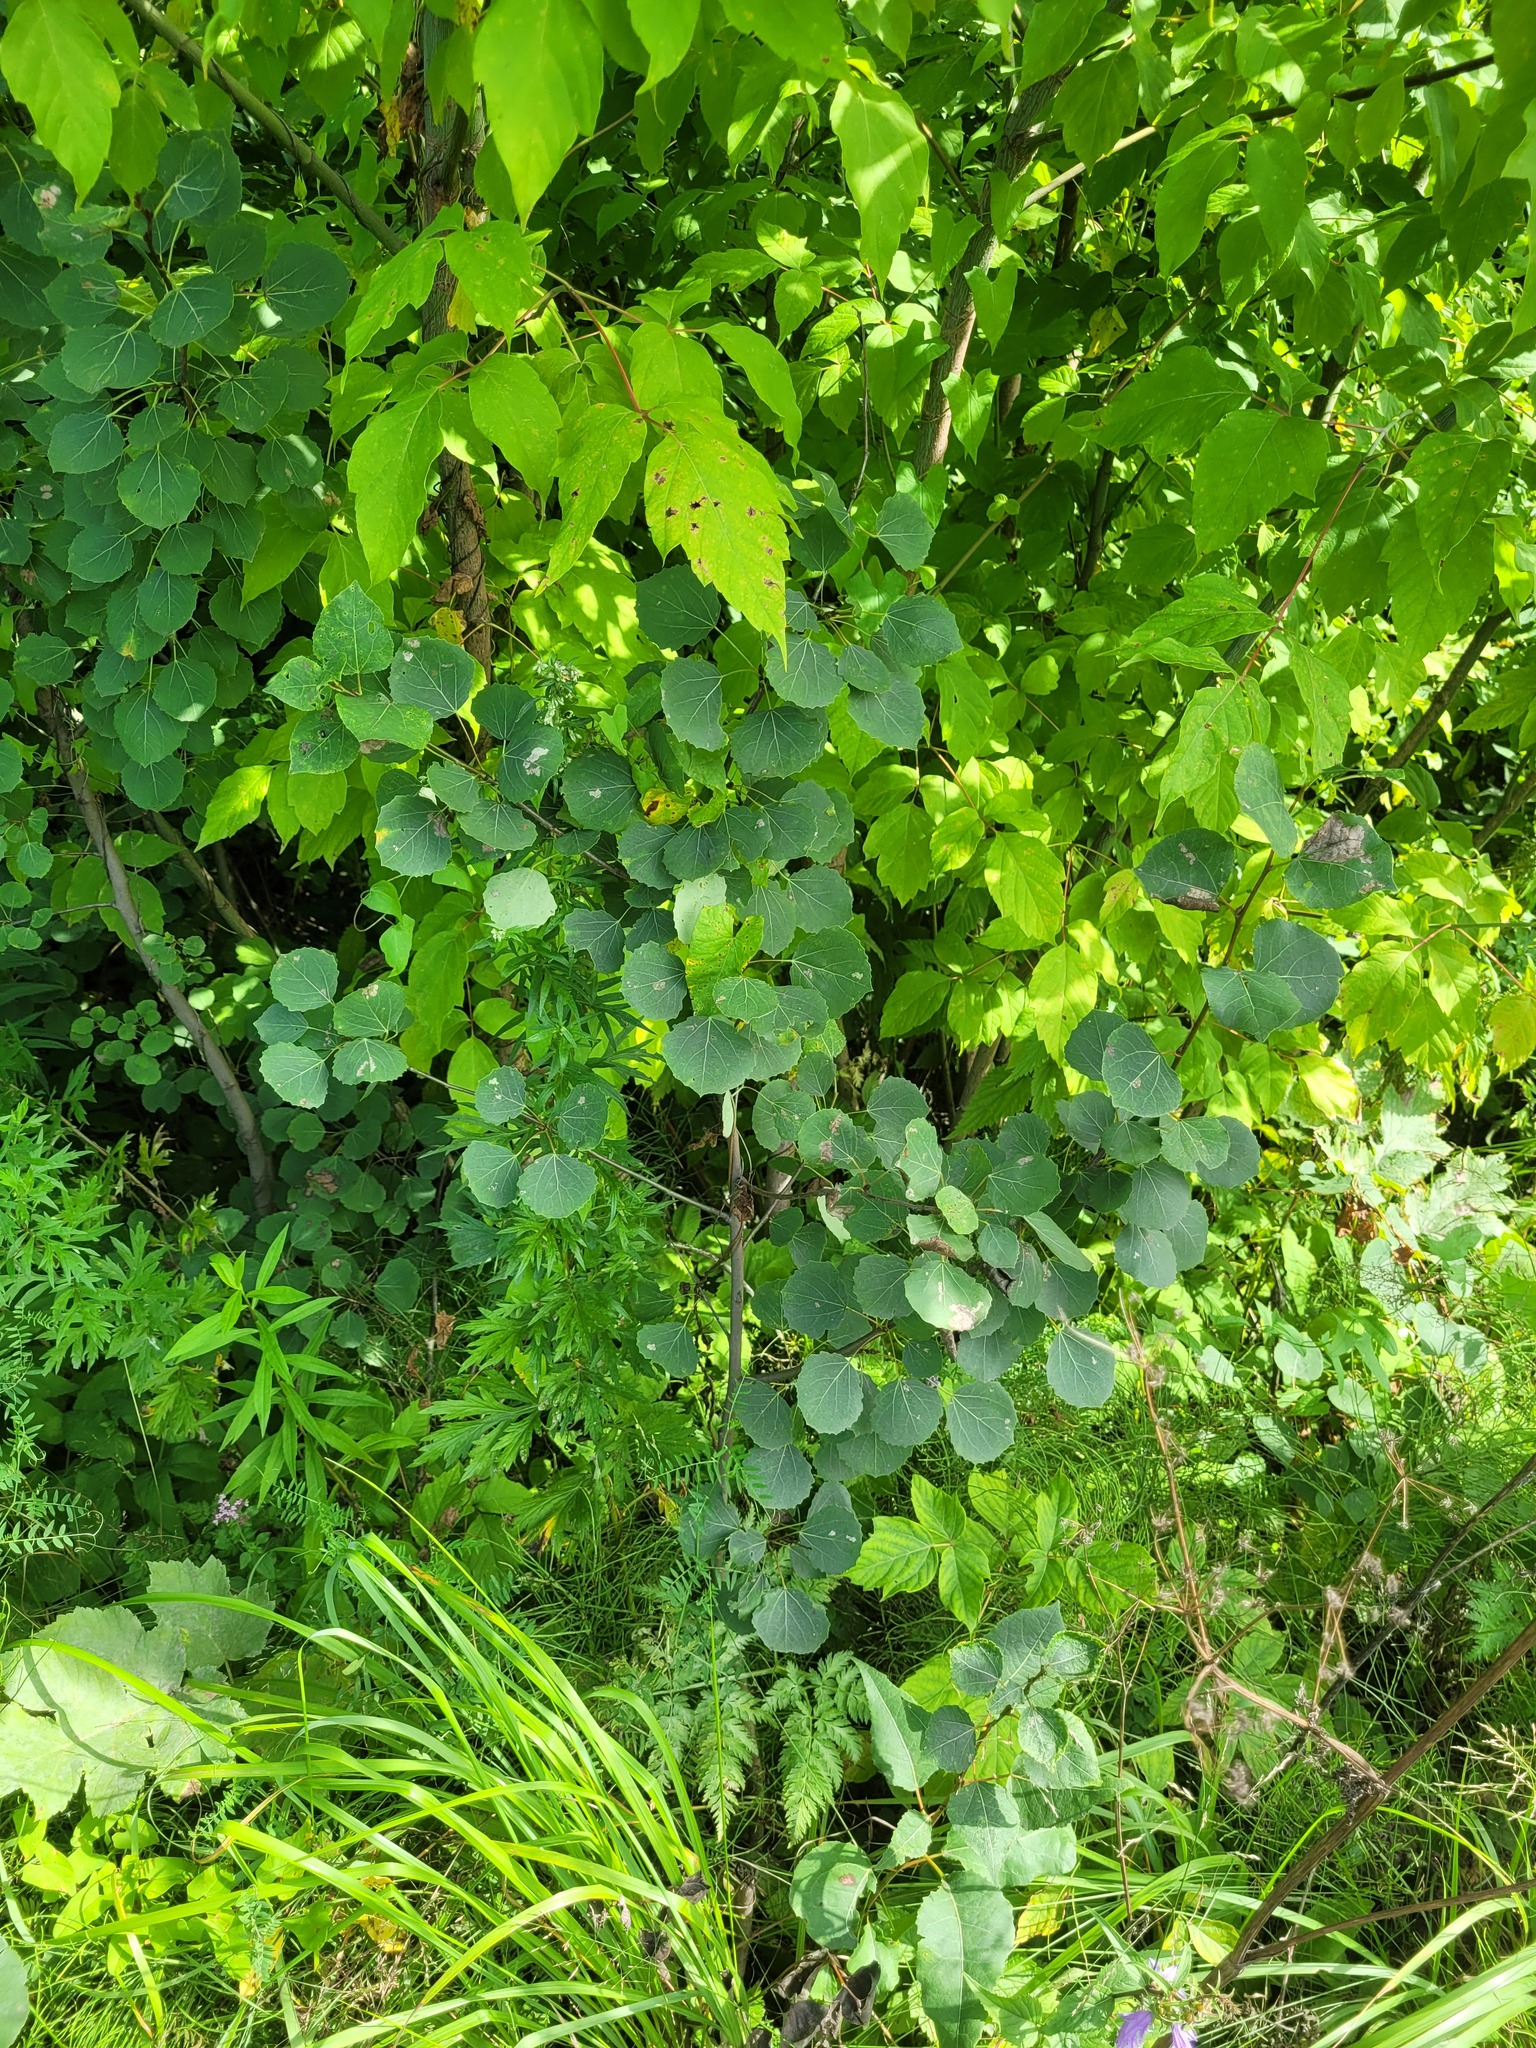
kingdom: Plantae
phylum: Tracheophyta
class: Magnoliopsida
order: Malpighiales
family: Salicaceae
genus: Populus
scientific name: Populus tremula
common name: European aspen
